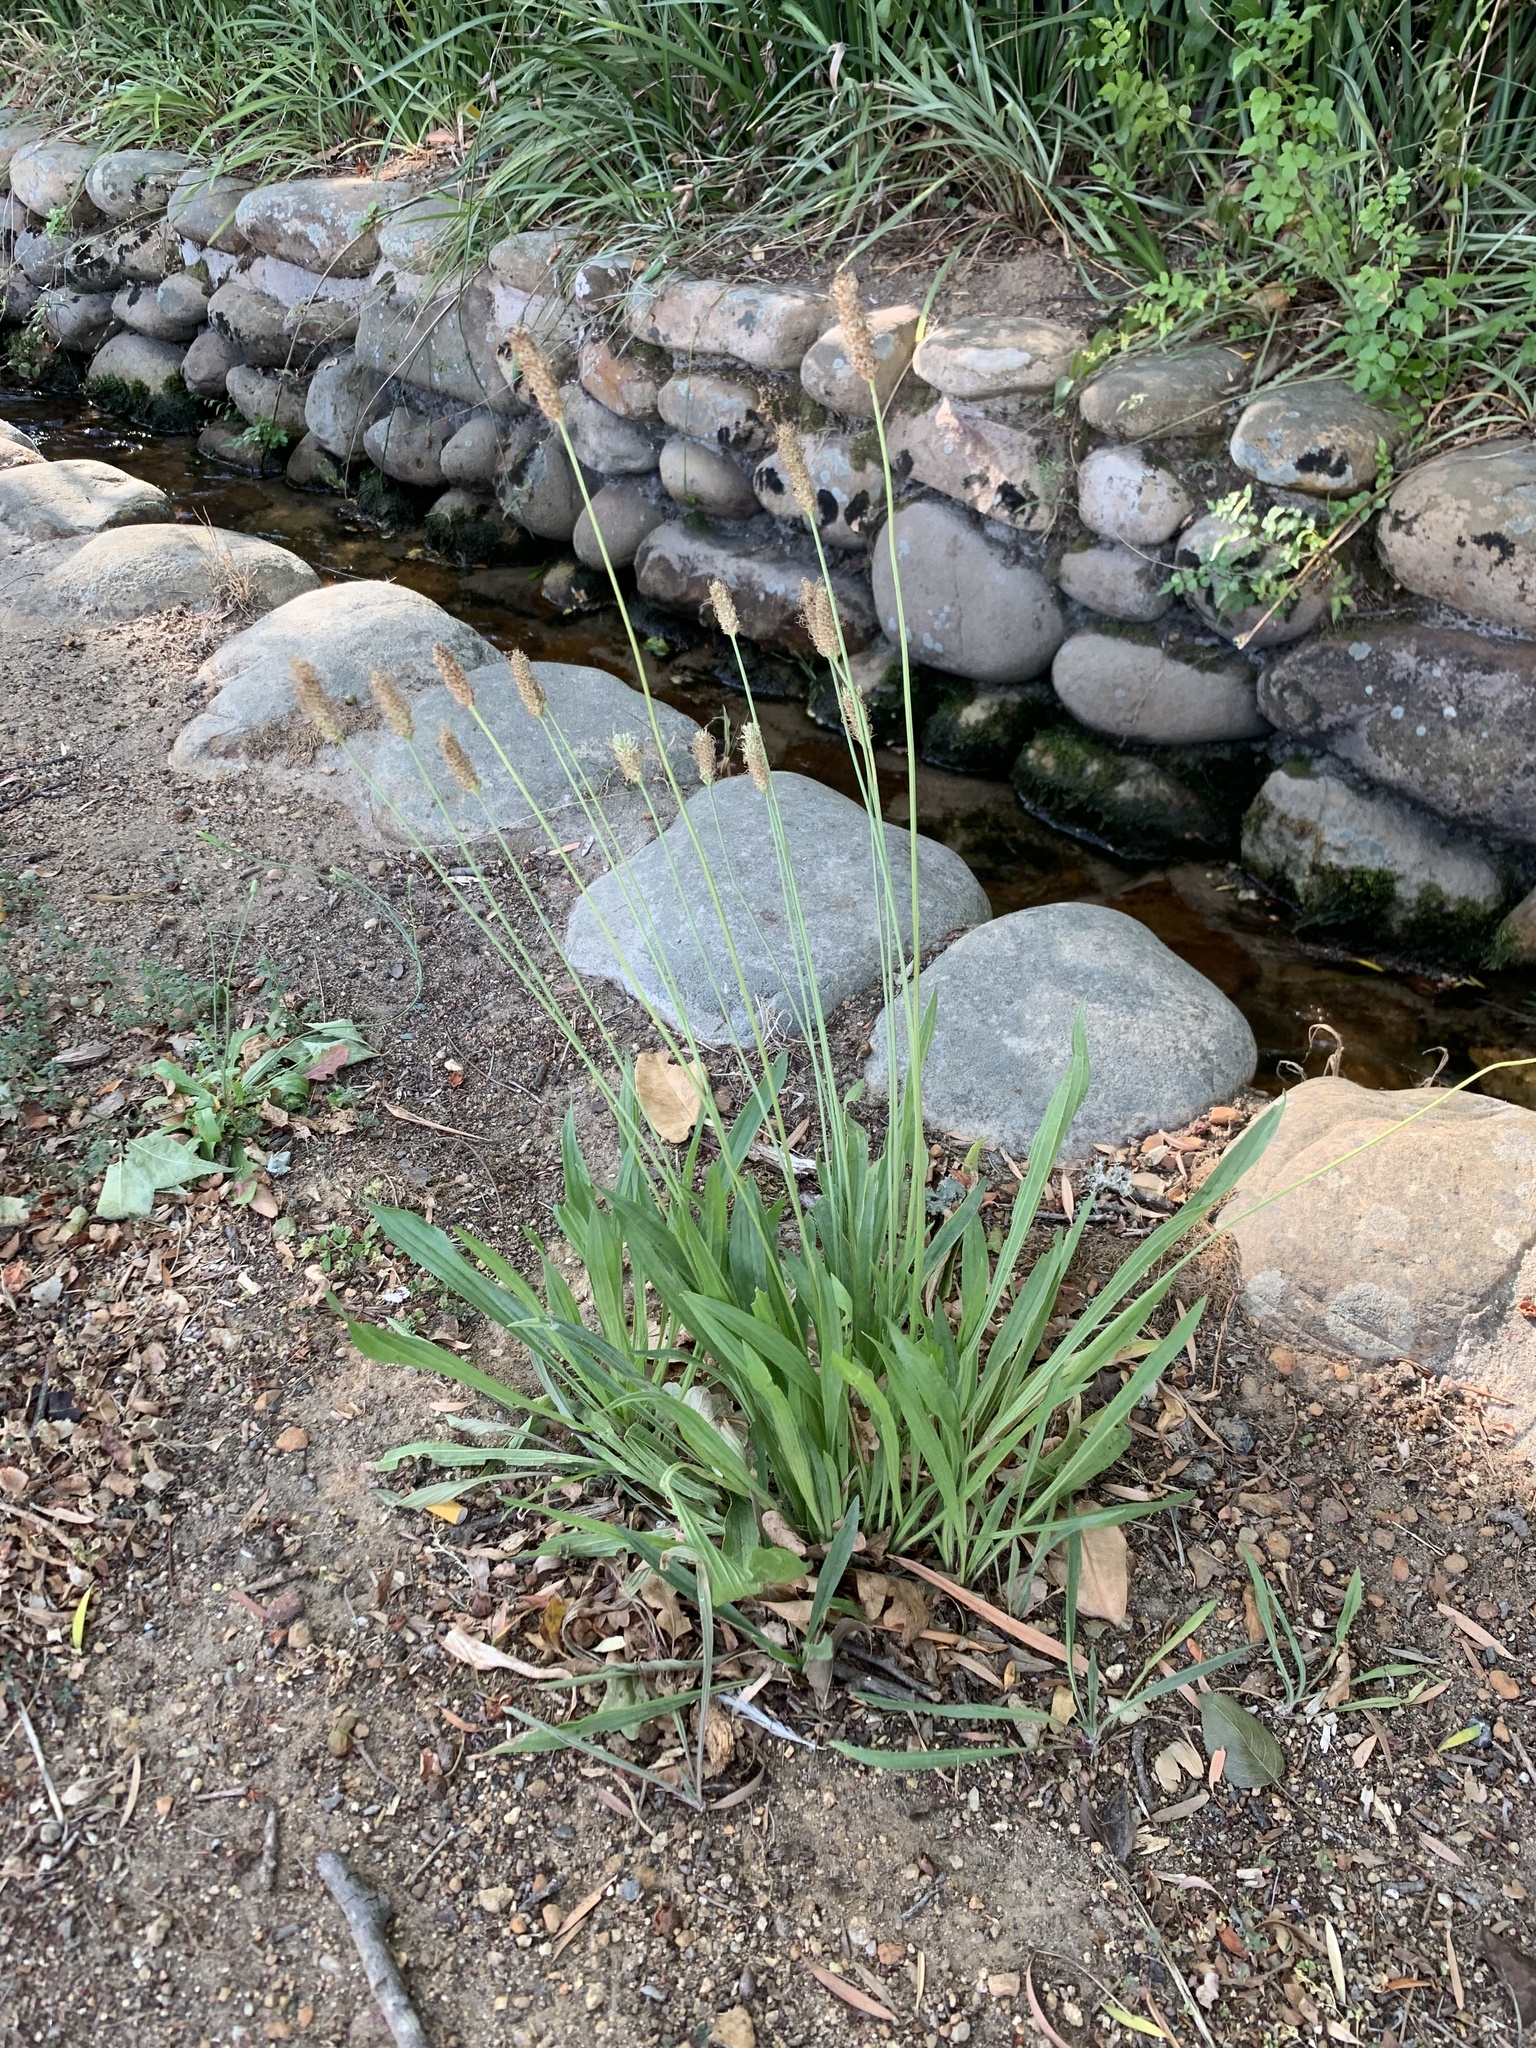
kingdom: Plantae
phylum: Tracheophyta
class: Magnoliopsida
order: Lamiales
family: Plantaginaceae
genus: Plantago
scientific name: Plantago lanceolata
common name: Ribwort plantain
